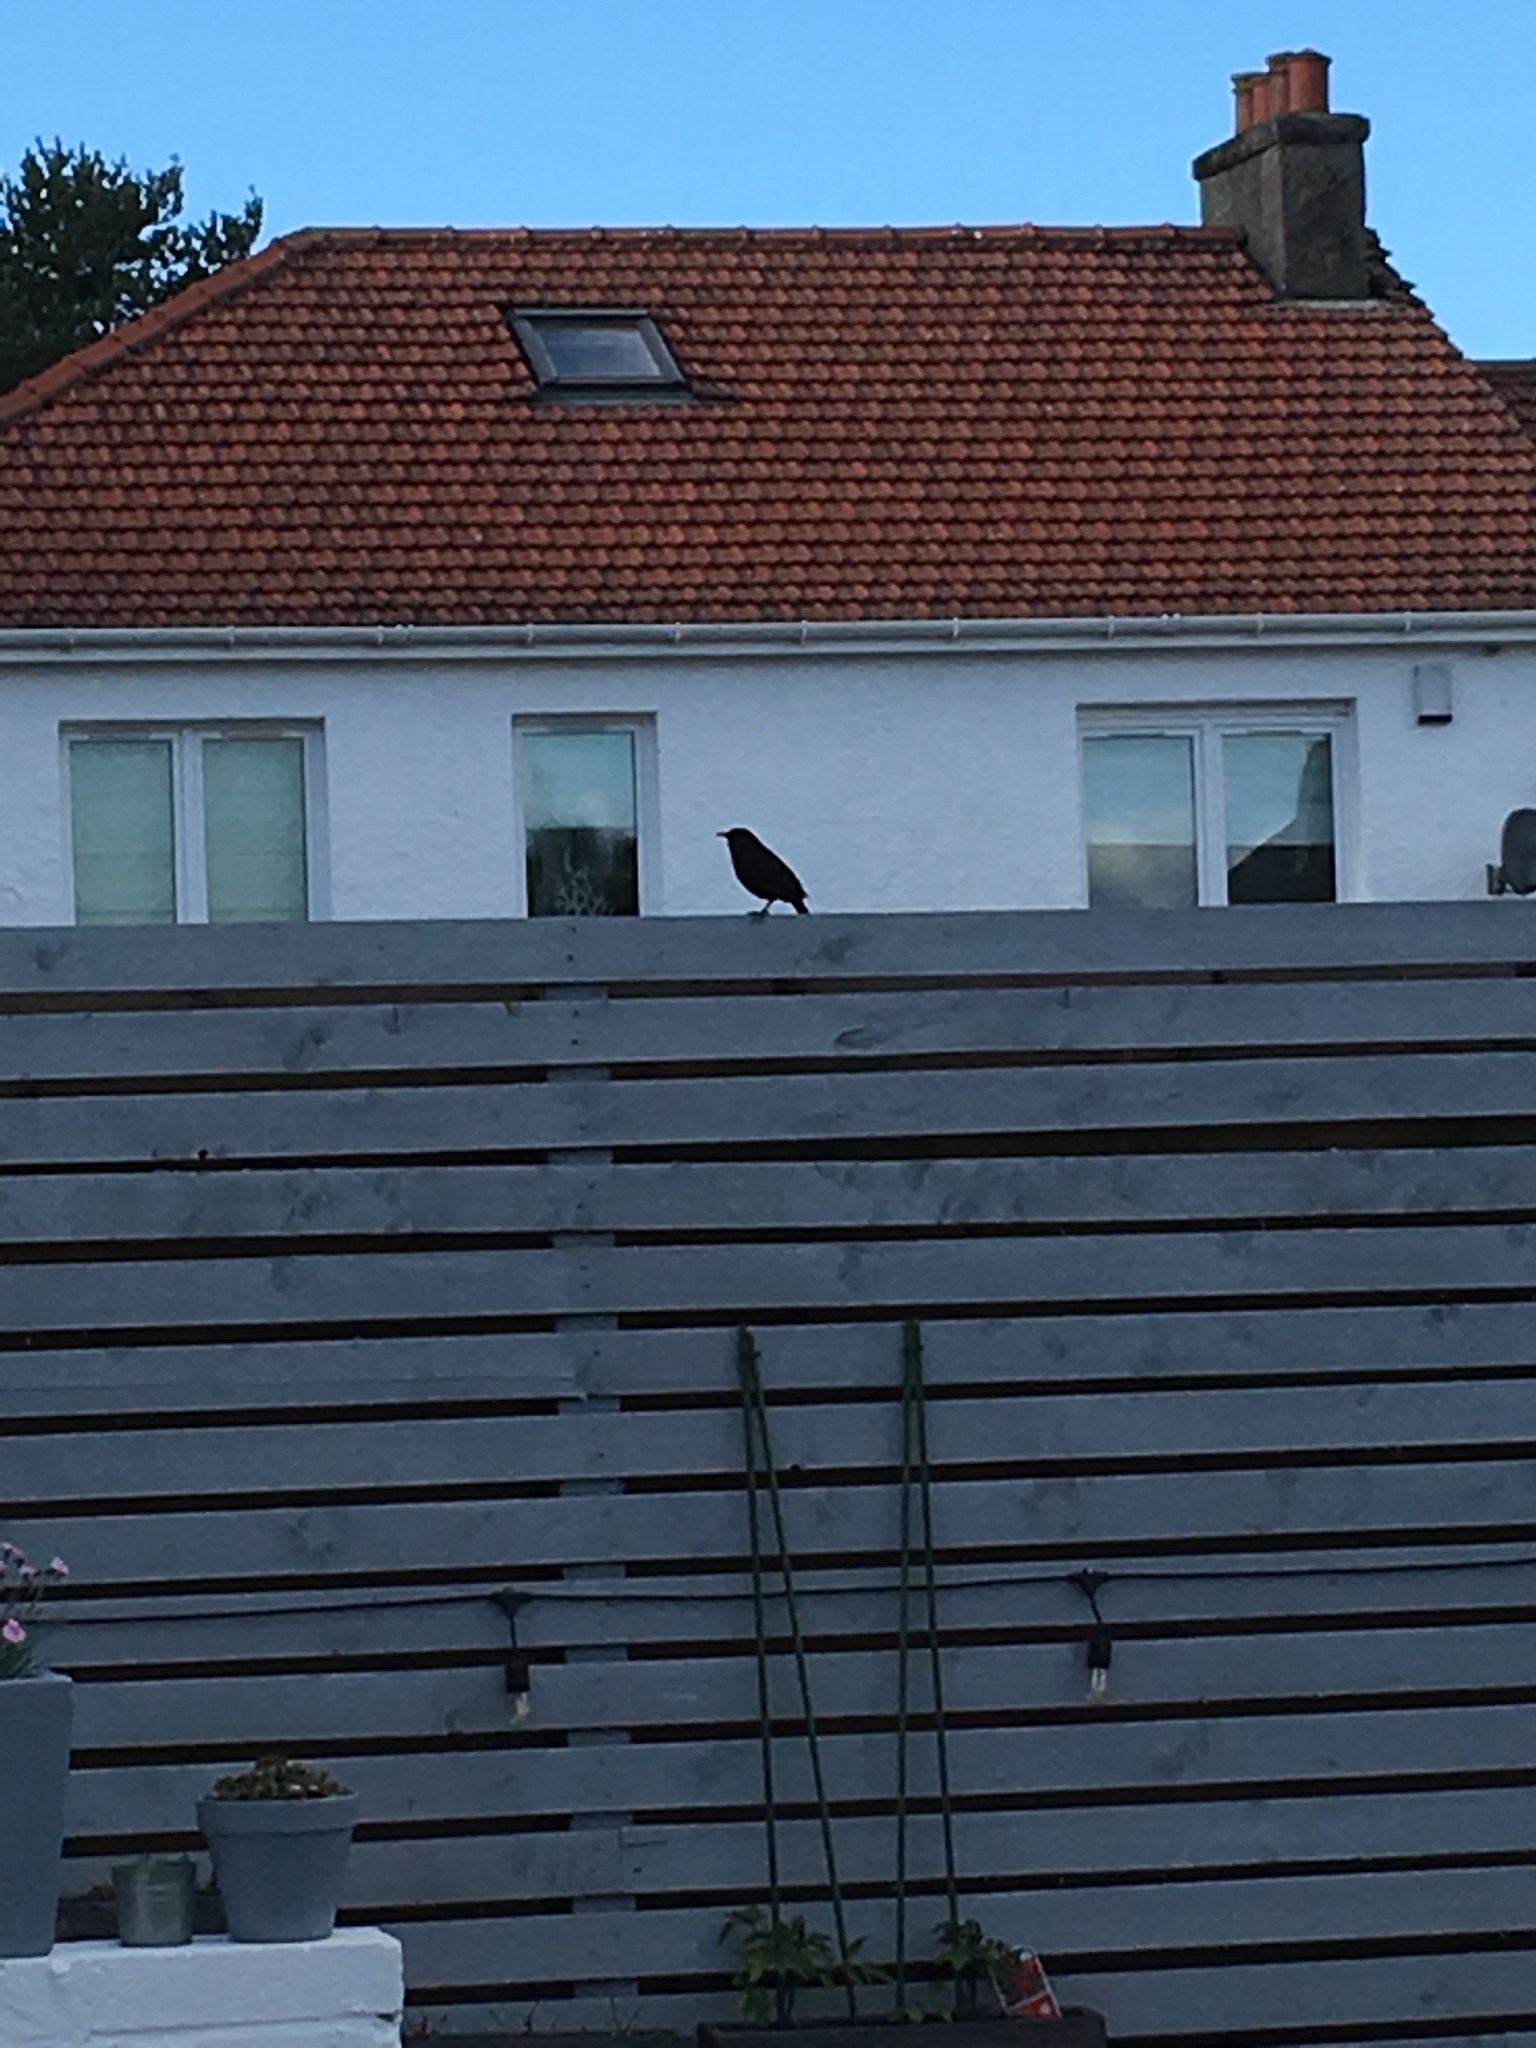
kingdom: Animalia
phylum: Chordata
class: Aves
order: Passeriformes
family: Turdidae
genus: Turdus
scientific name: Turdus merula
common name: Common blackbird
